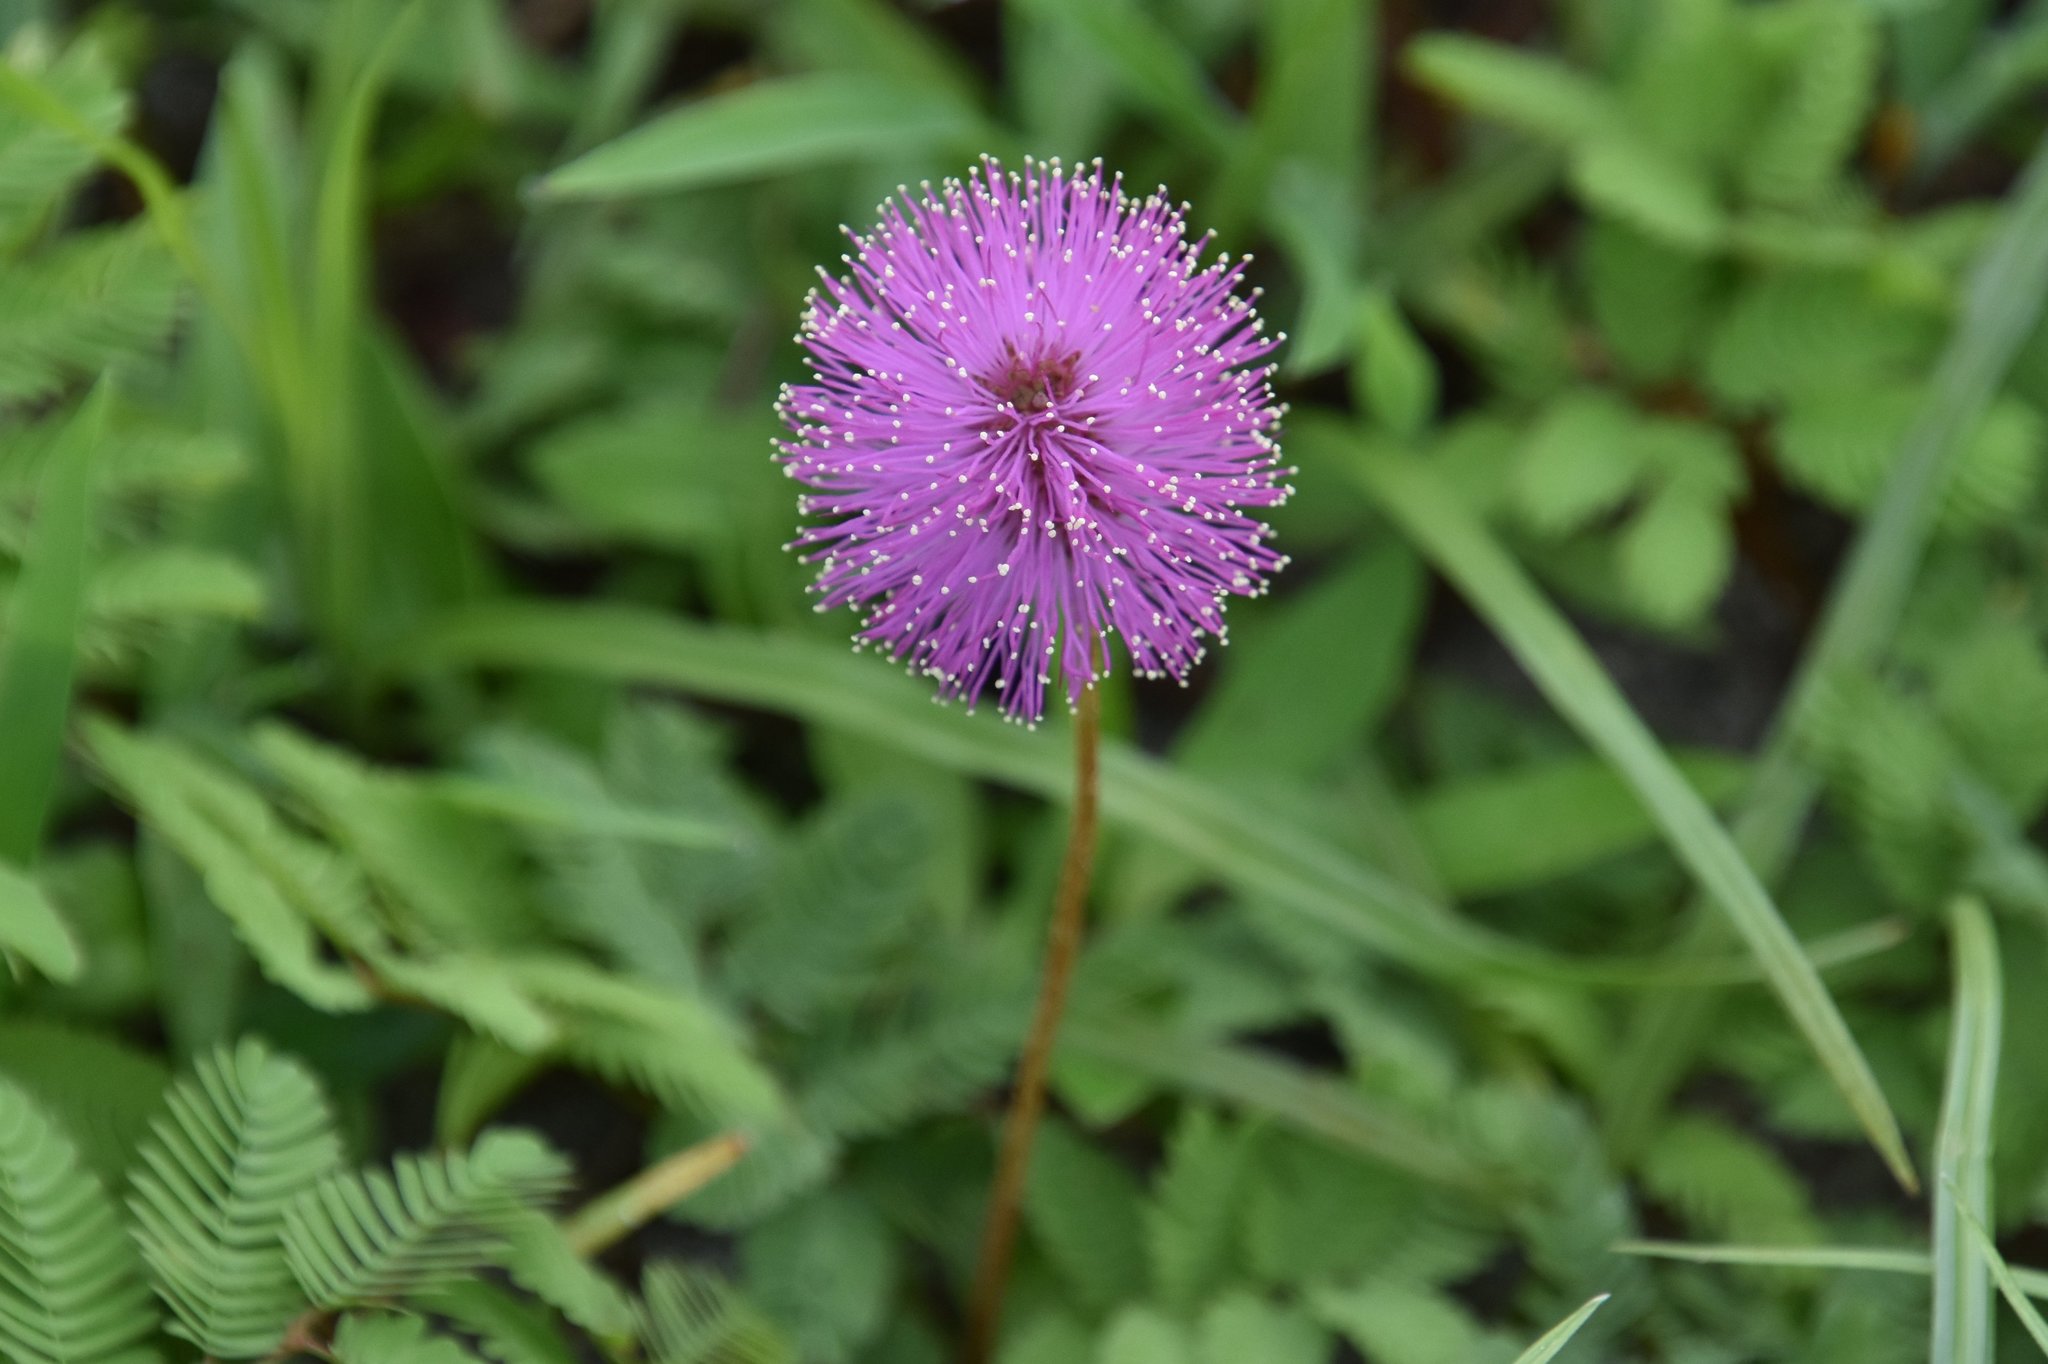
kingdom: Plantae
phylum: Tracheophyta
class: Magnoliopsida
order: Fabales
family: Fabaceae
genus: Mimosa
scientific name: Mimosa strigillosa
